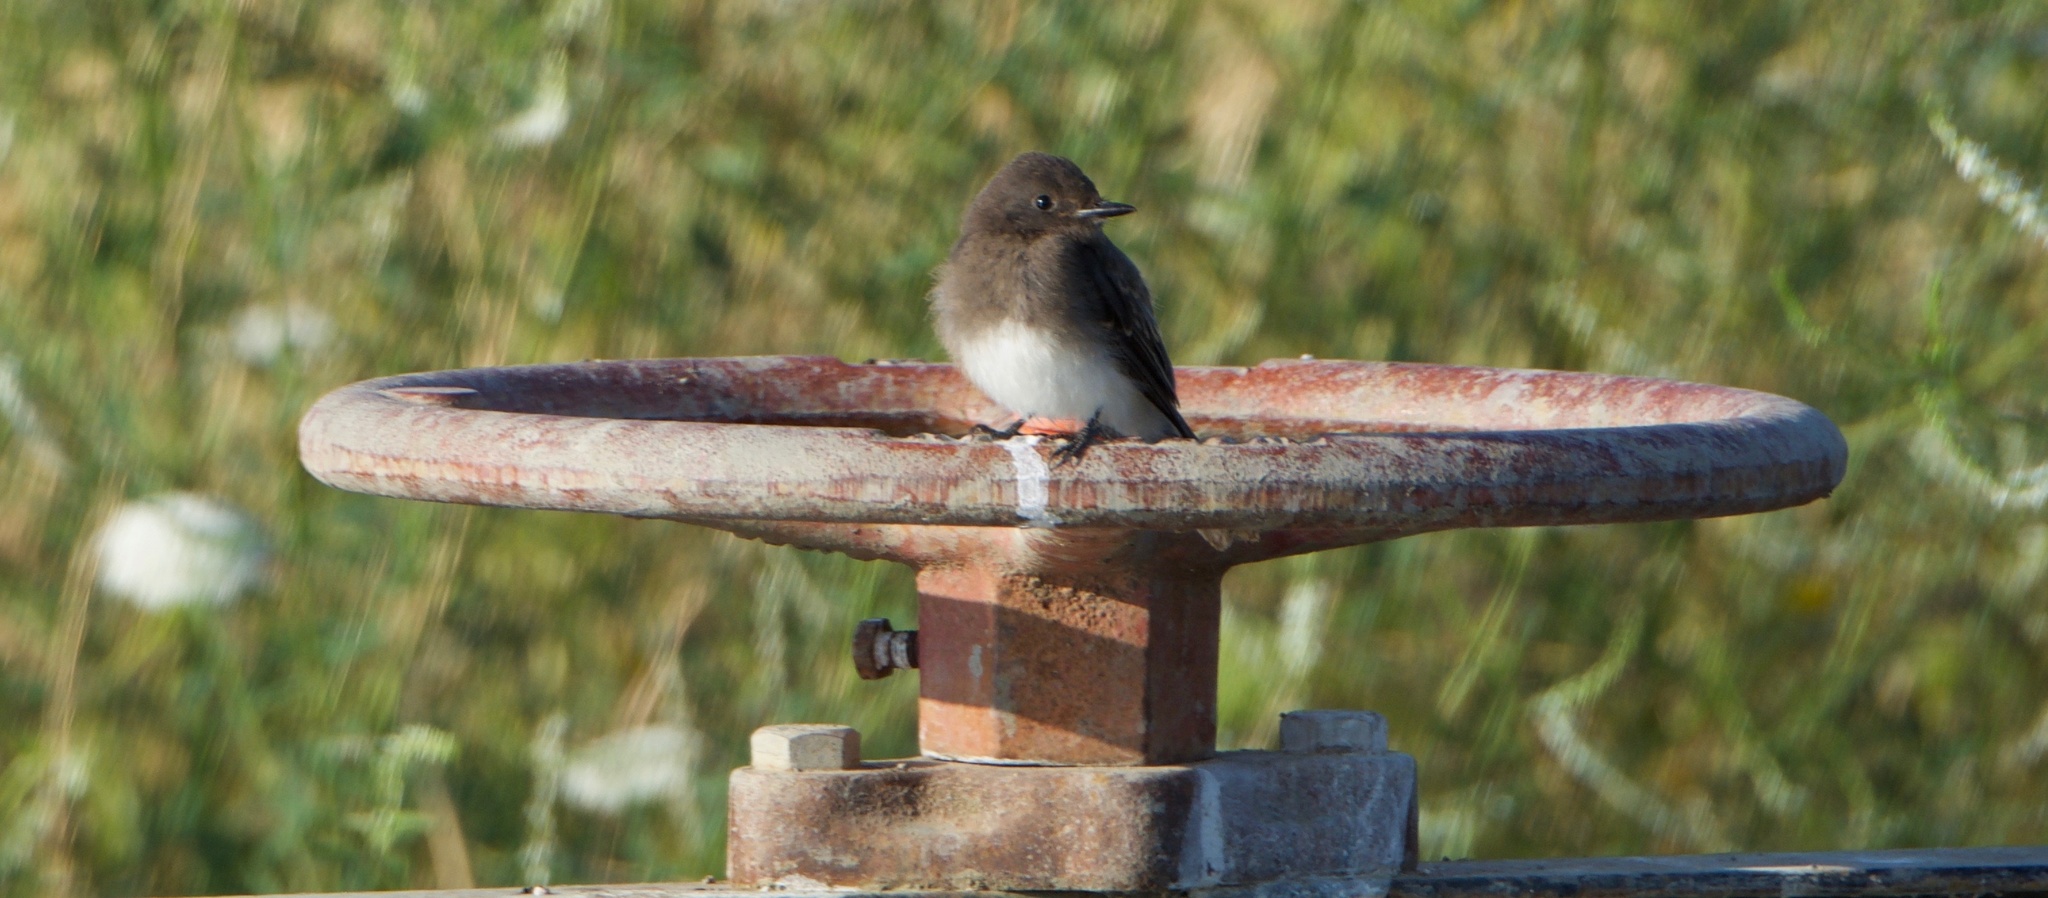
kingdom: Animalia
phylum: Chordata
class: Aves
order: Passeriformes
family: Tyrannidae
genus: Sayornis
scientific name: Sayornis nigricans
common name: Black phoebe
